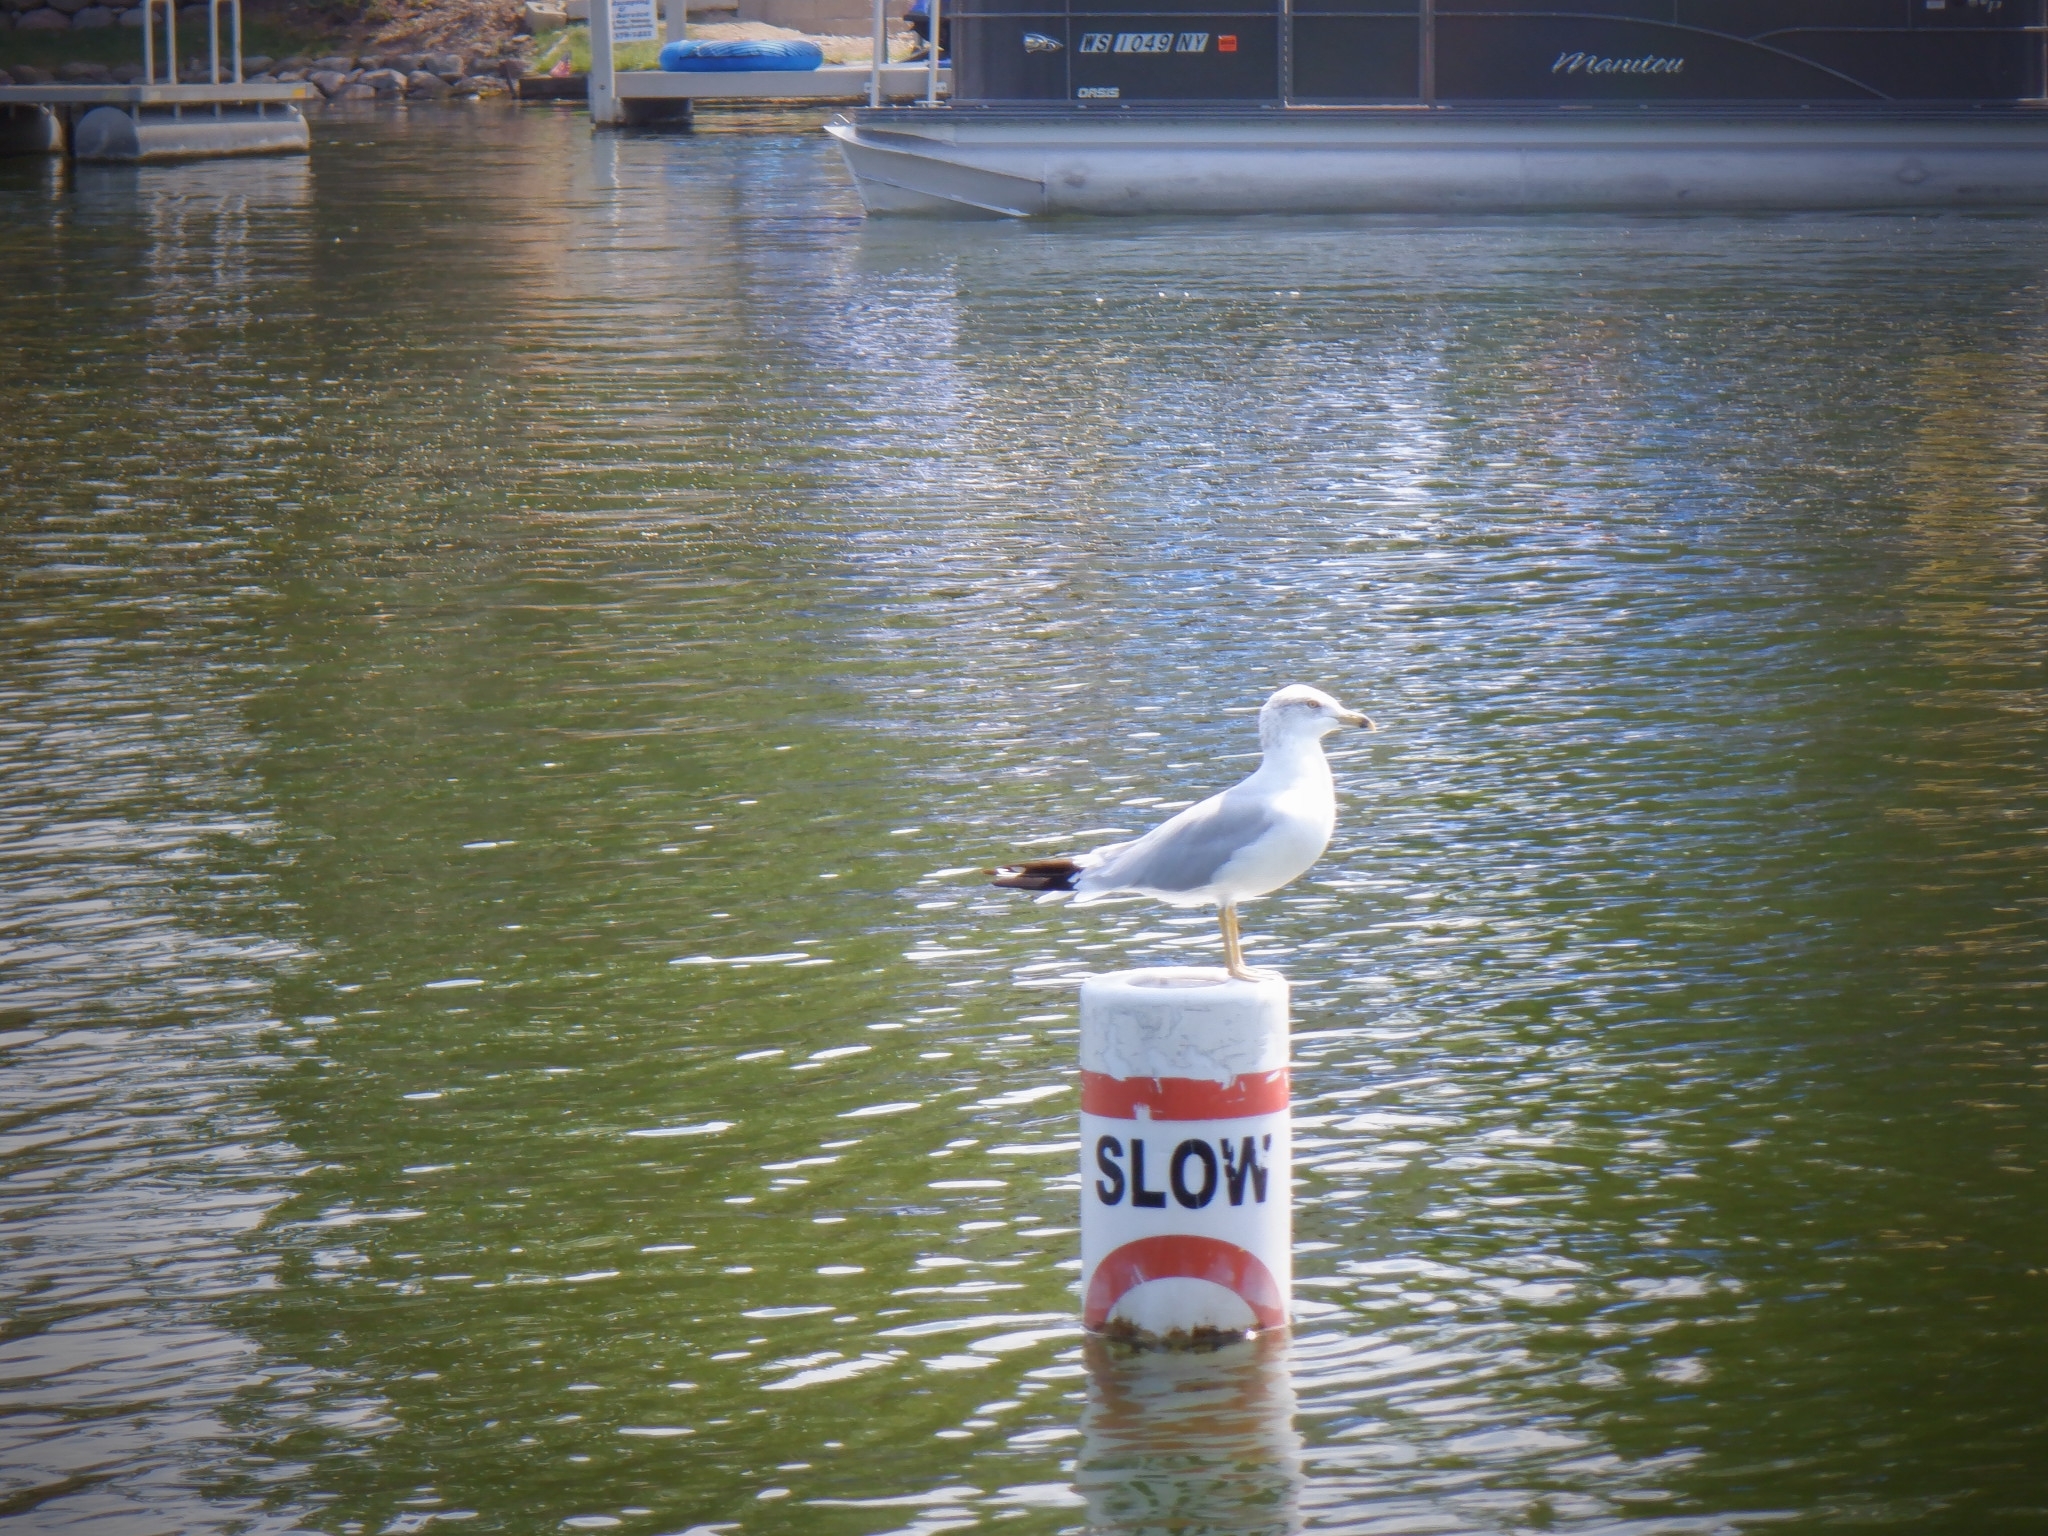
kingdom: Animalia
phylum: Chordata
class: Aves
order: Charadriiformes
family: Laridae
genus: Larus
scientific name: Larus delawarensis
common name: Ring-billed gull
